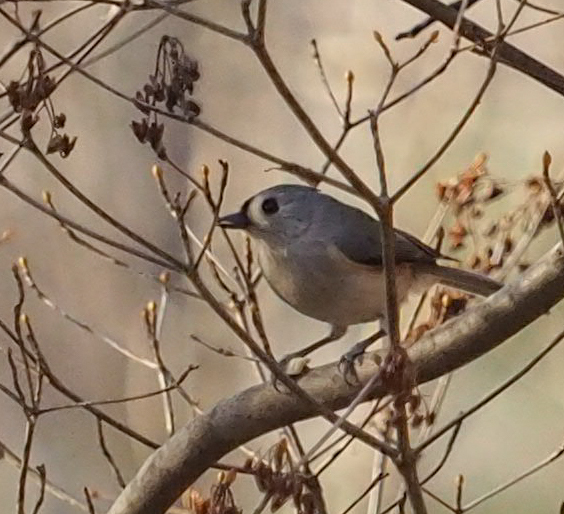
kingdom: Animalia
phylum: Chordata
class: Aves
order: Passeriformes
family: Paridae
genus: Baeolophus
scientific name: Baeolophus bicolor
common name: Tufted titmouse
